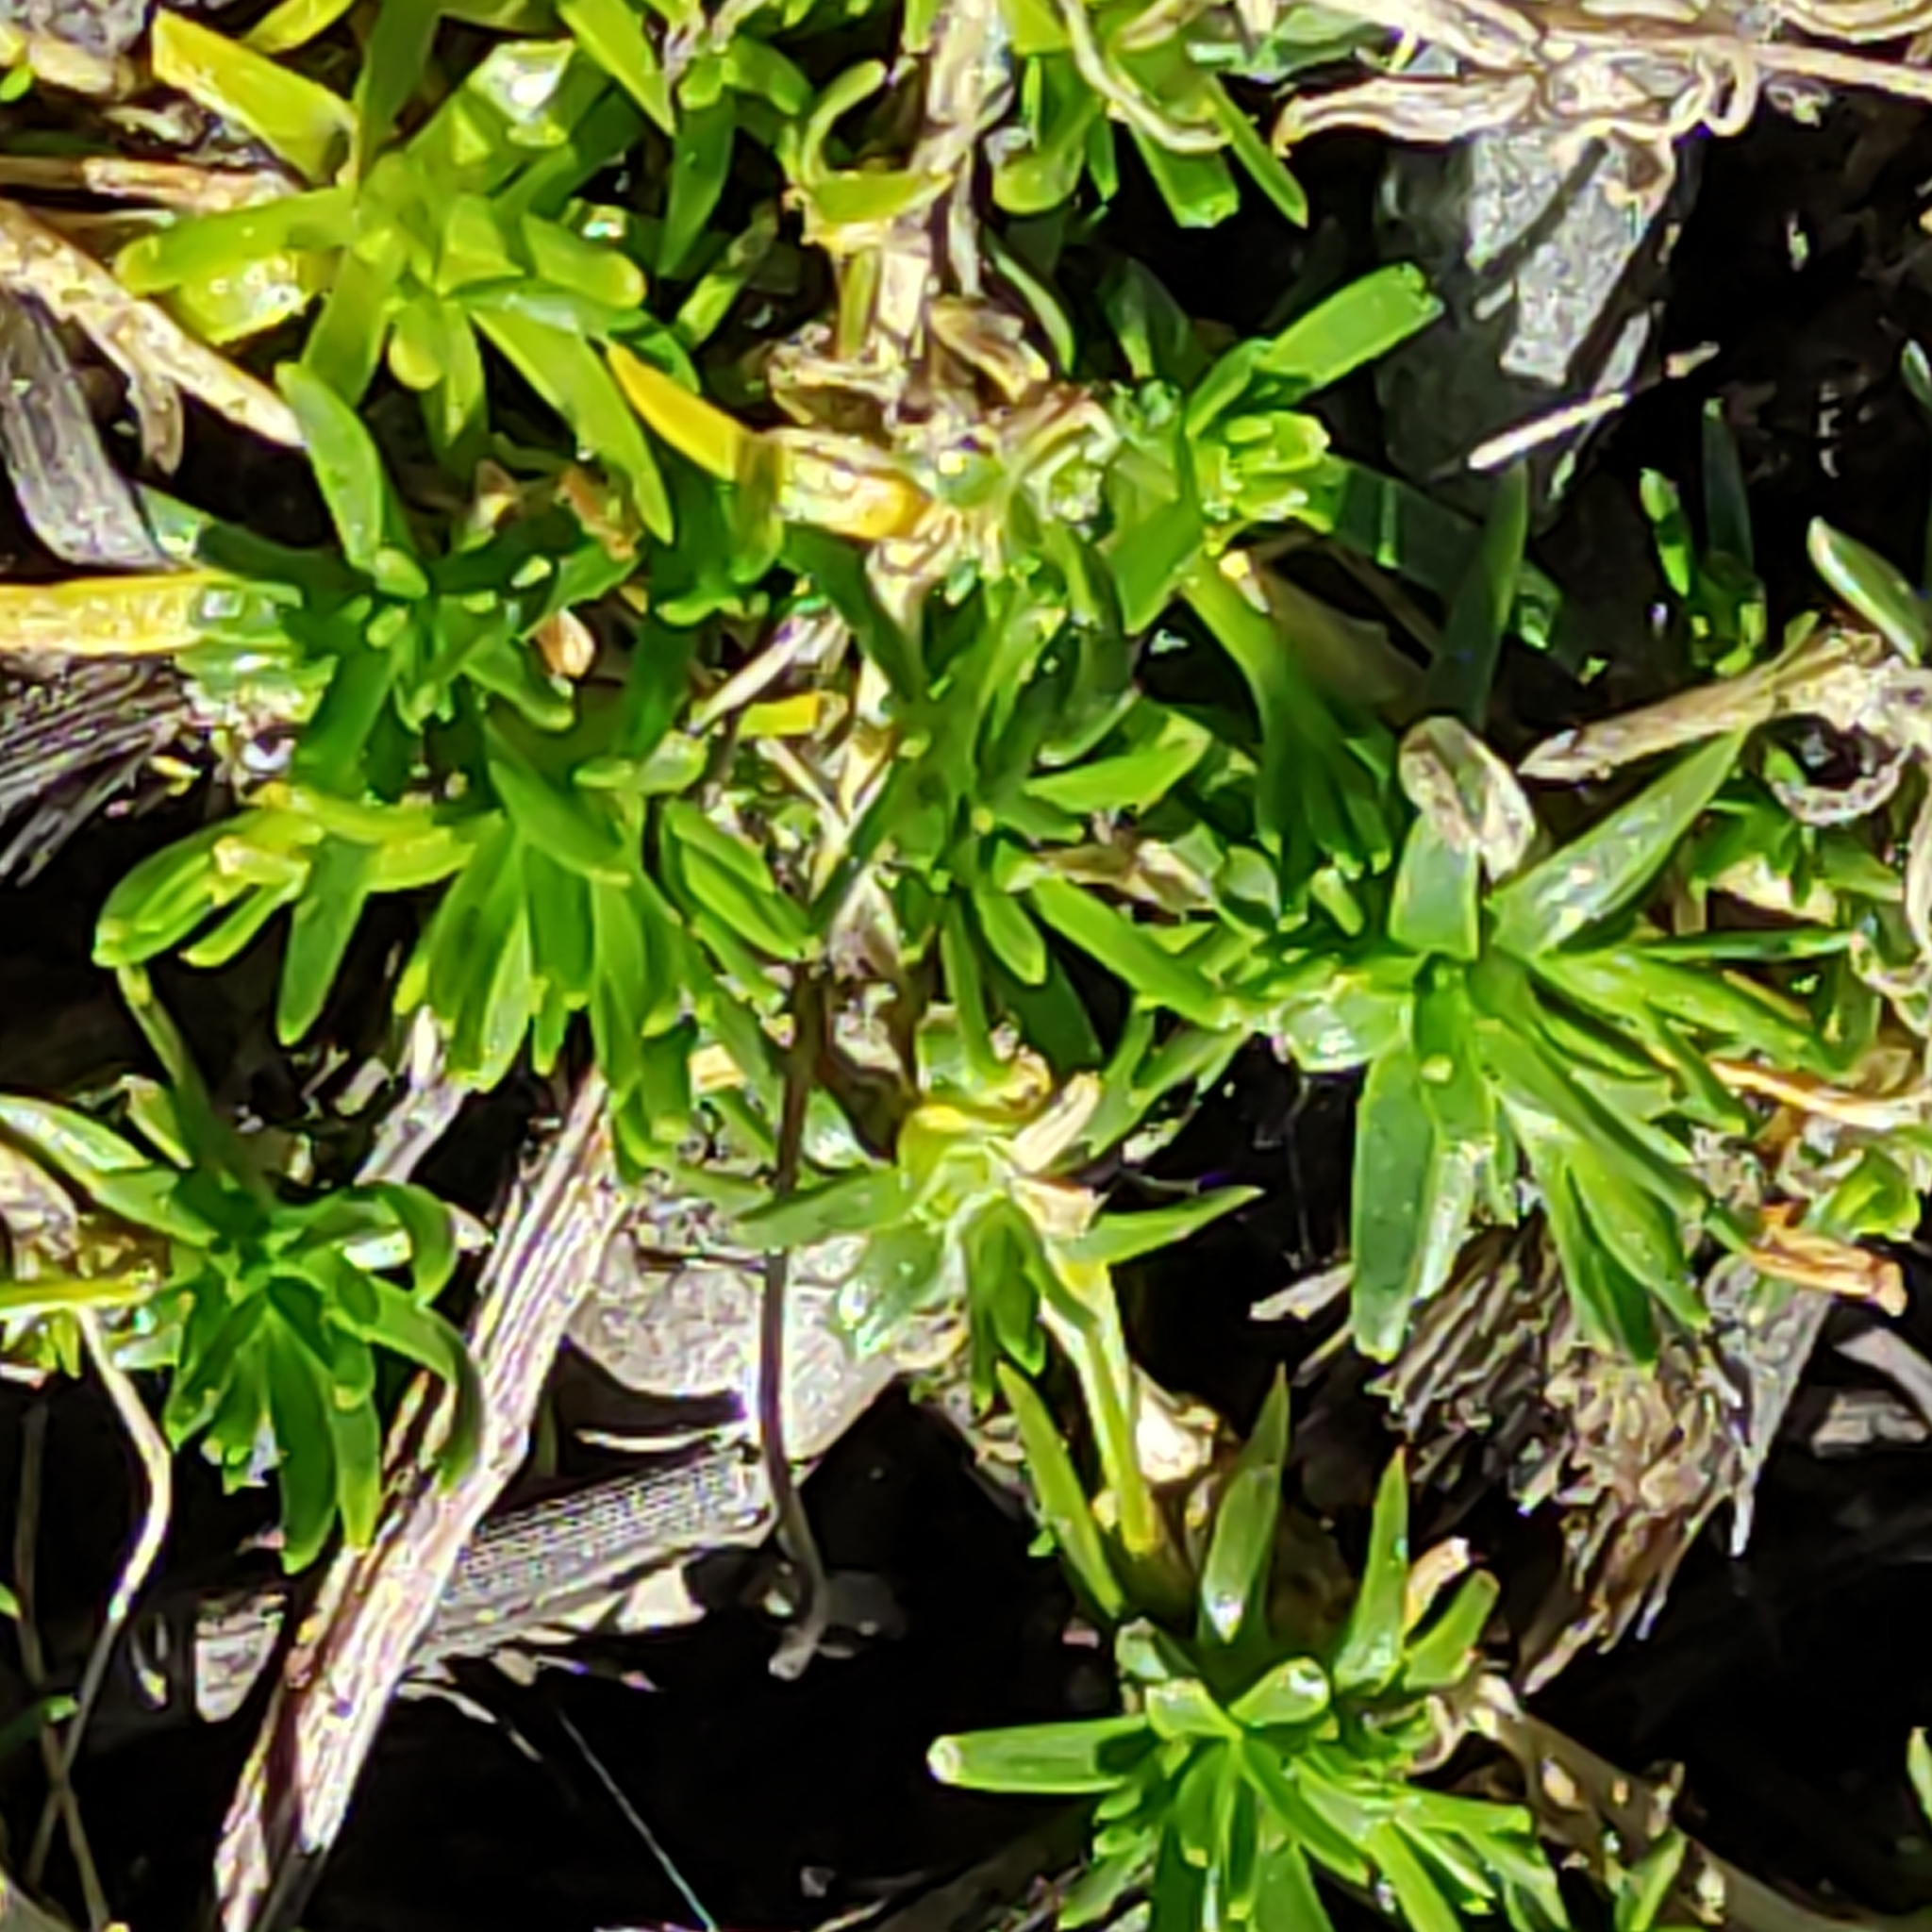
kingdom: Plantae
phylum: Tracheophyta
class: Magnoliopsida
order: Caryophyllales
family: Caryophyllaceae
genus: Sagina
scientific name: Sagina procumbens
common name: Procumbent pearlwort
